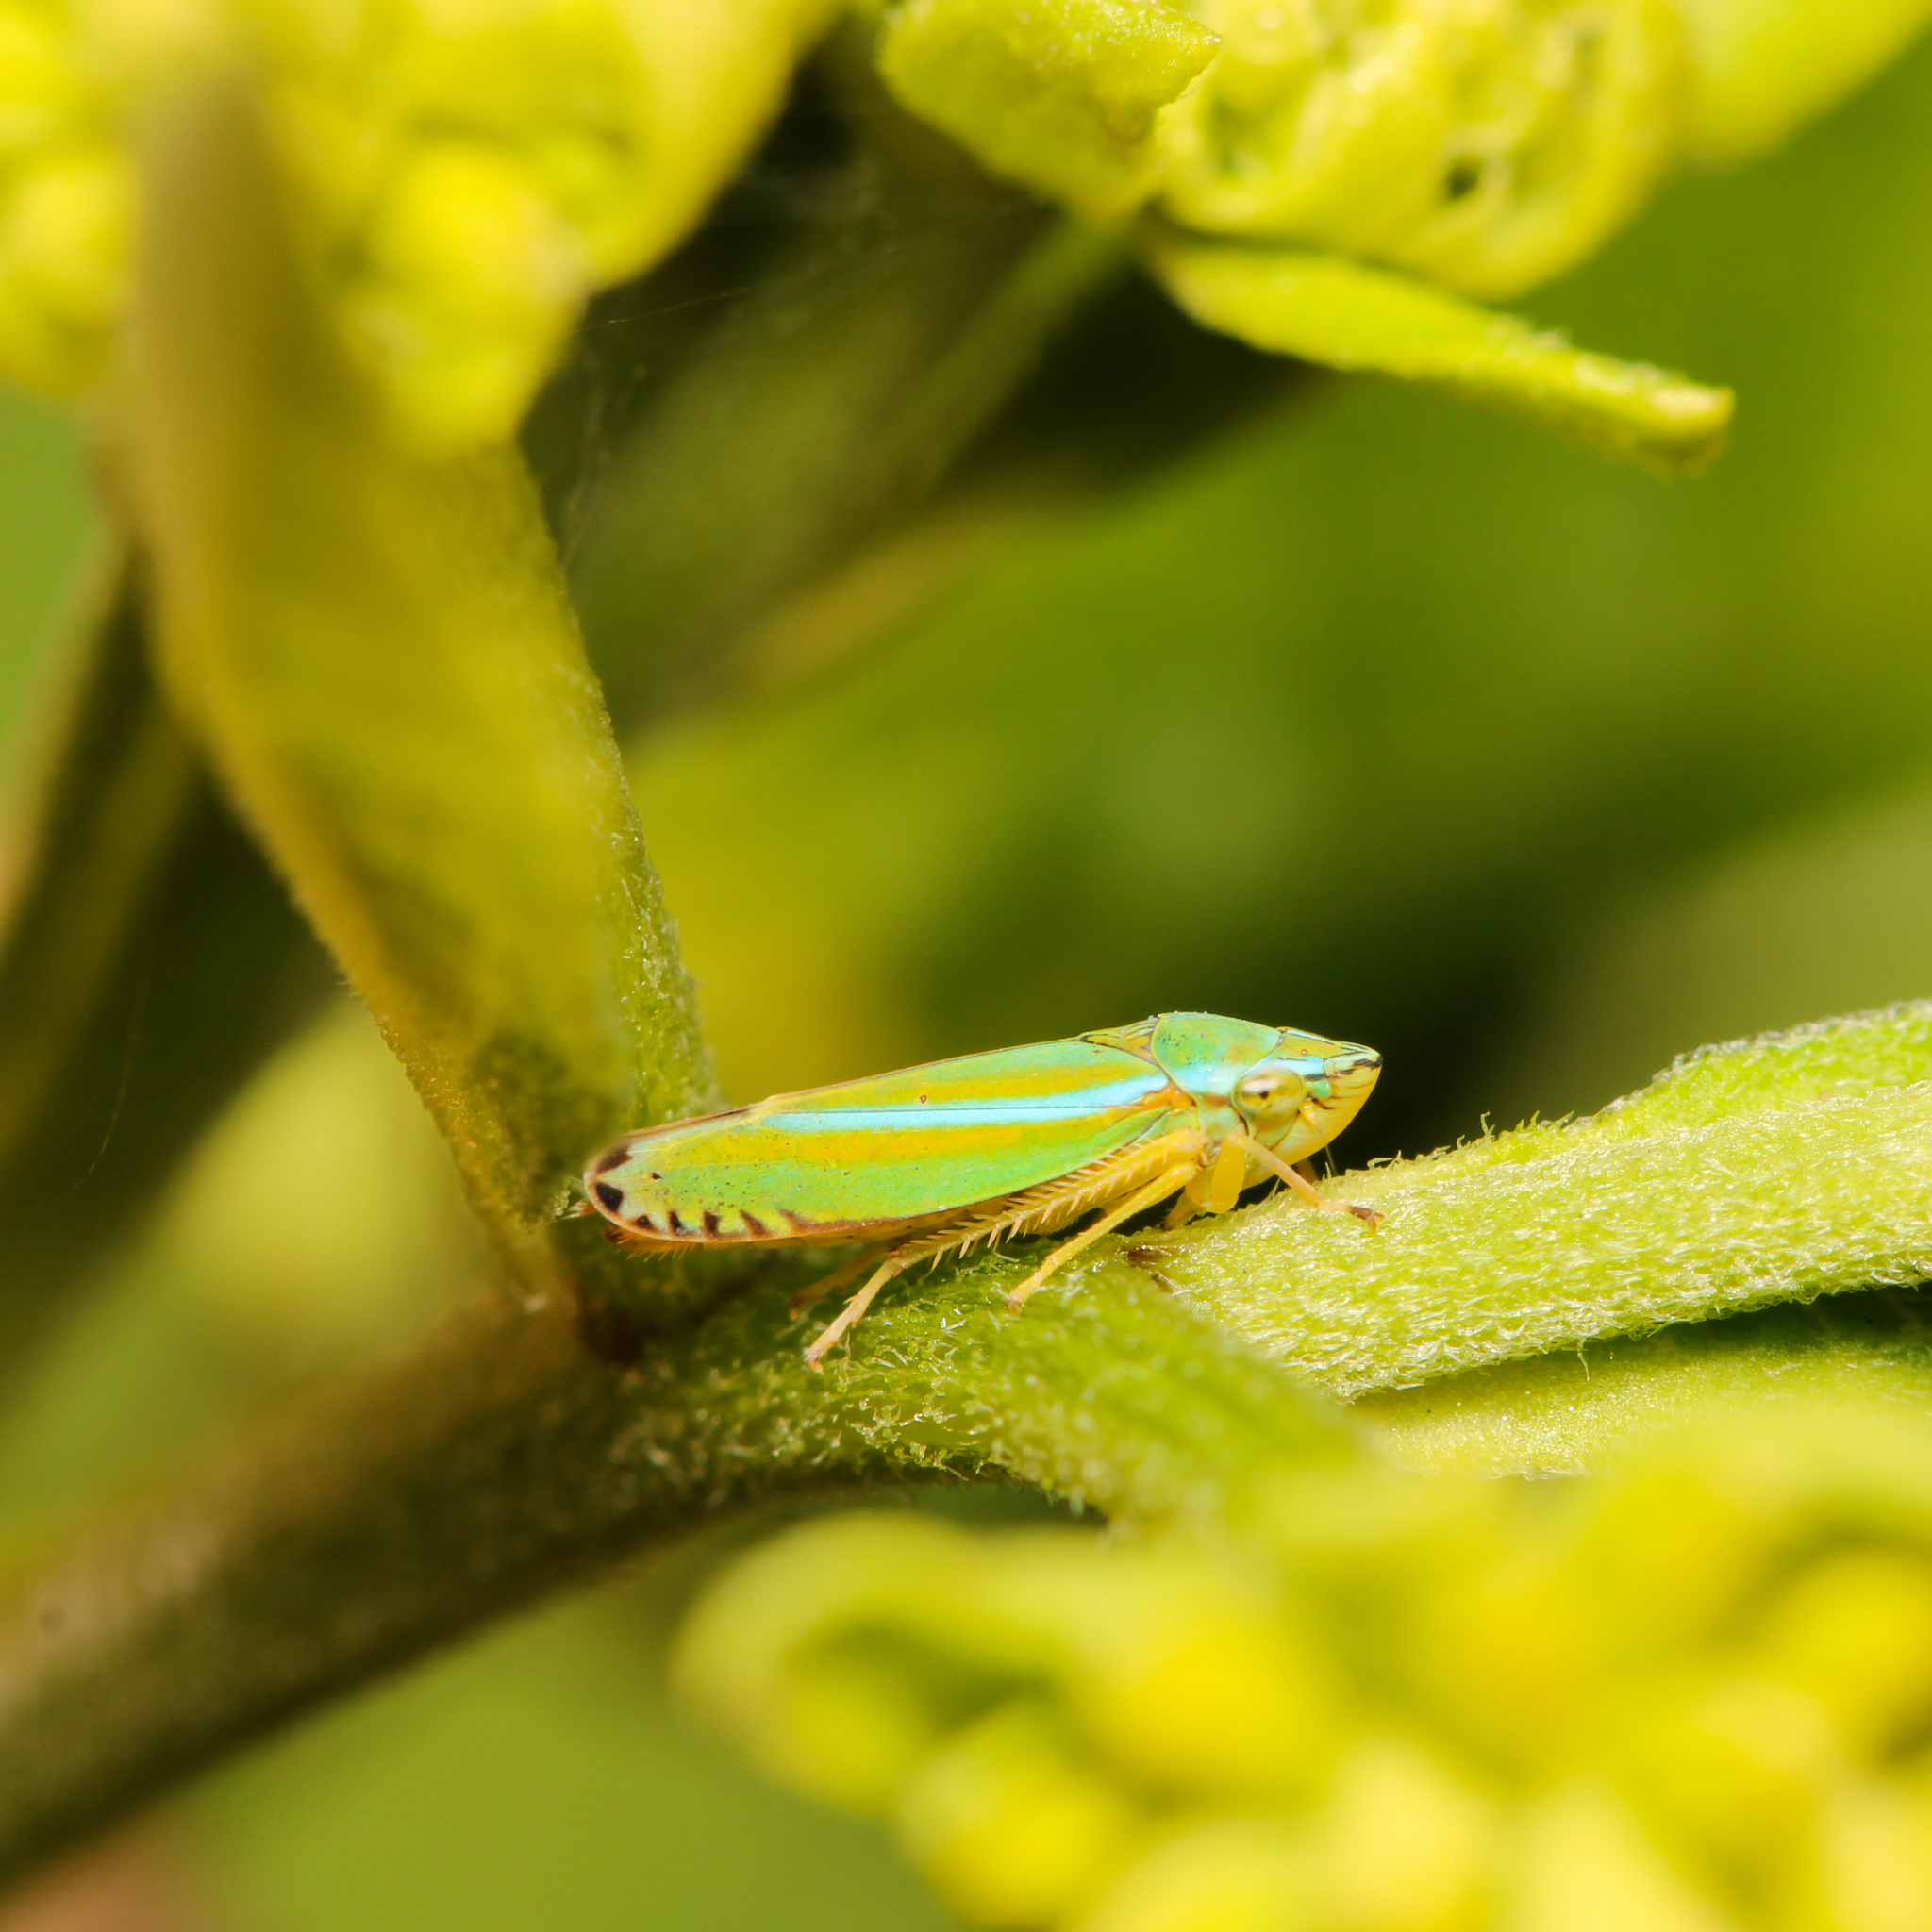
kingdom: Animalia
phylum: Arthropoda
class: Insecta
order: Hemiptera
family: Cicadellidae
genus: Graphocephala
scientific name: Graphocephala versuta
